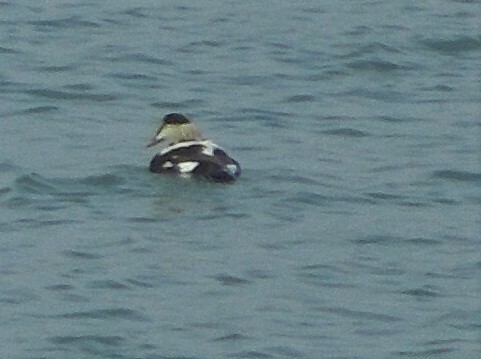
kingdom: Animalia
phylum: Chordata
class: Aves
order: Anseriformes
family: Anatidae
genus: Somateria
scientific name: Somateria mollissima
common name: Common eider
